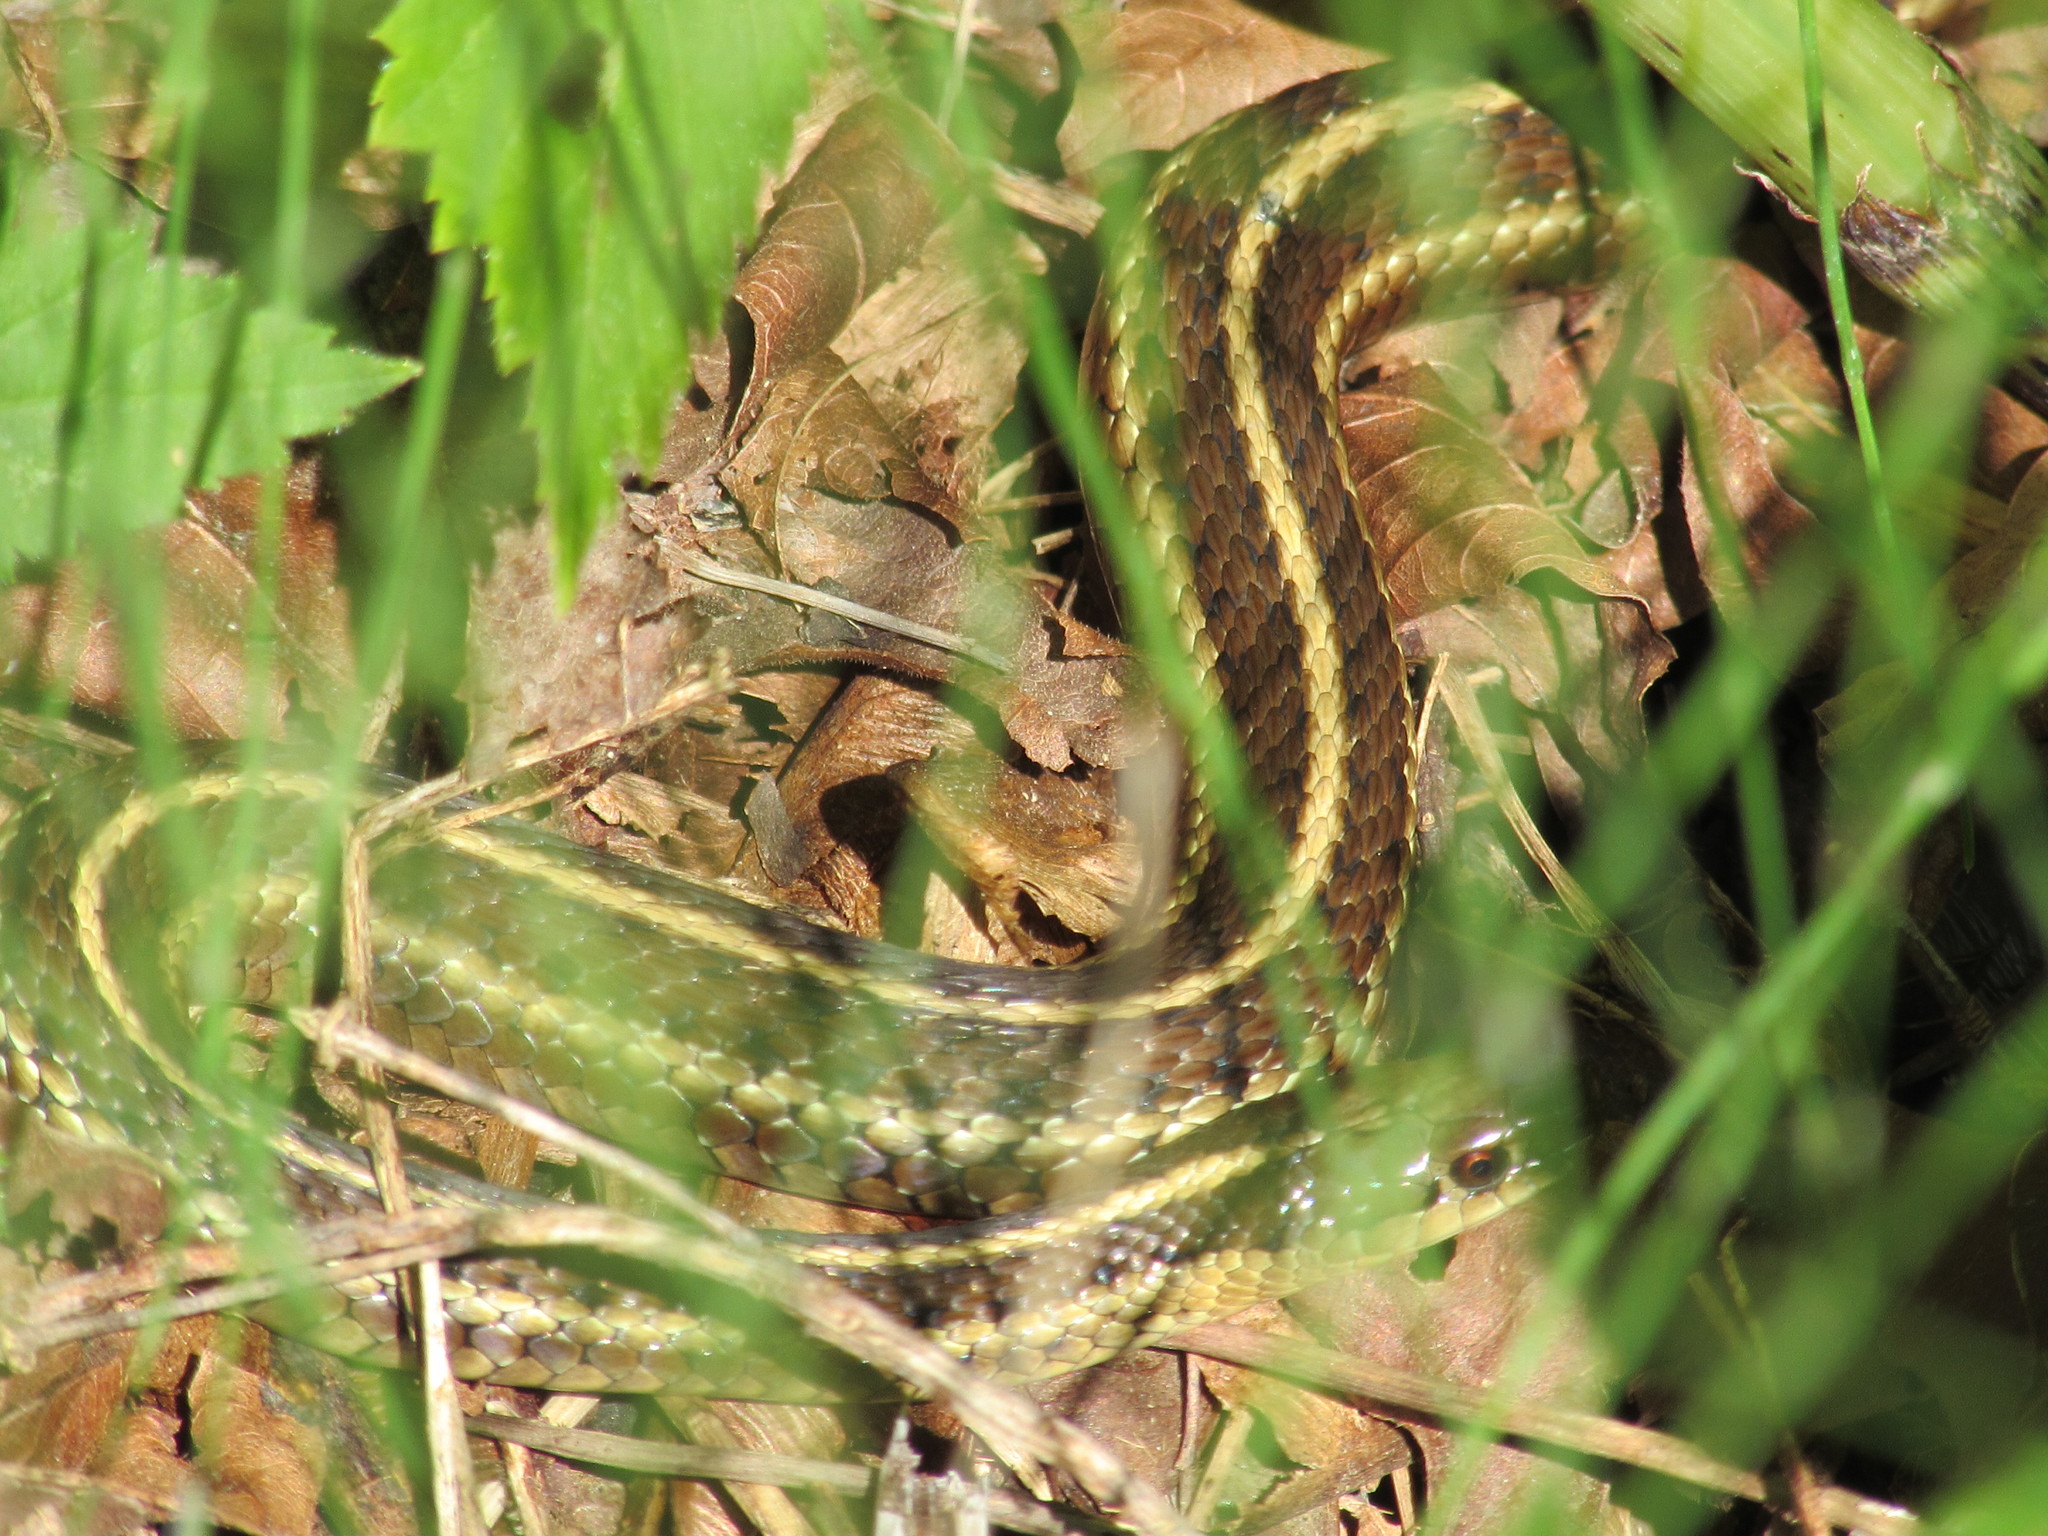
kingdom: Animalia
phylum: Chordata
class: Squamata
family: Colubridae
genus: Thamnophis
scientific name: Thamnophis ordinoides
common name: Northwestern garter snake
